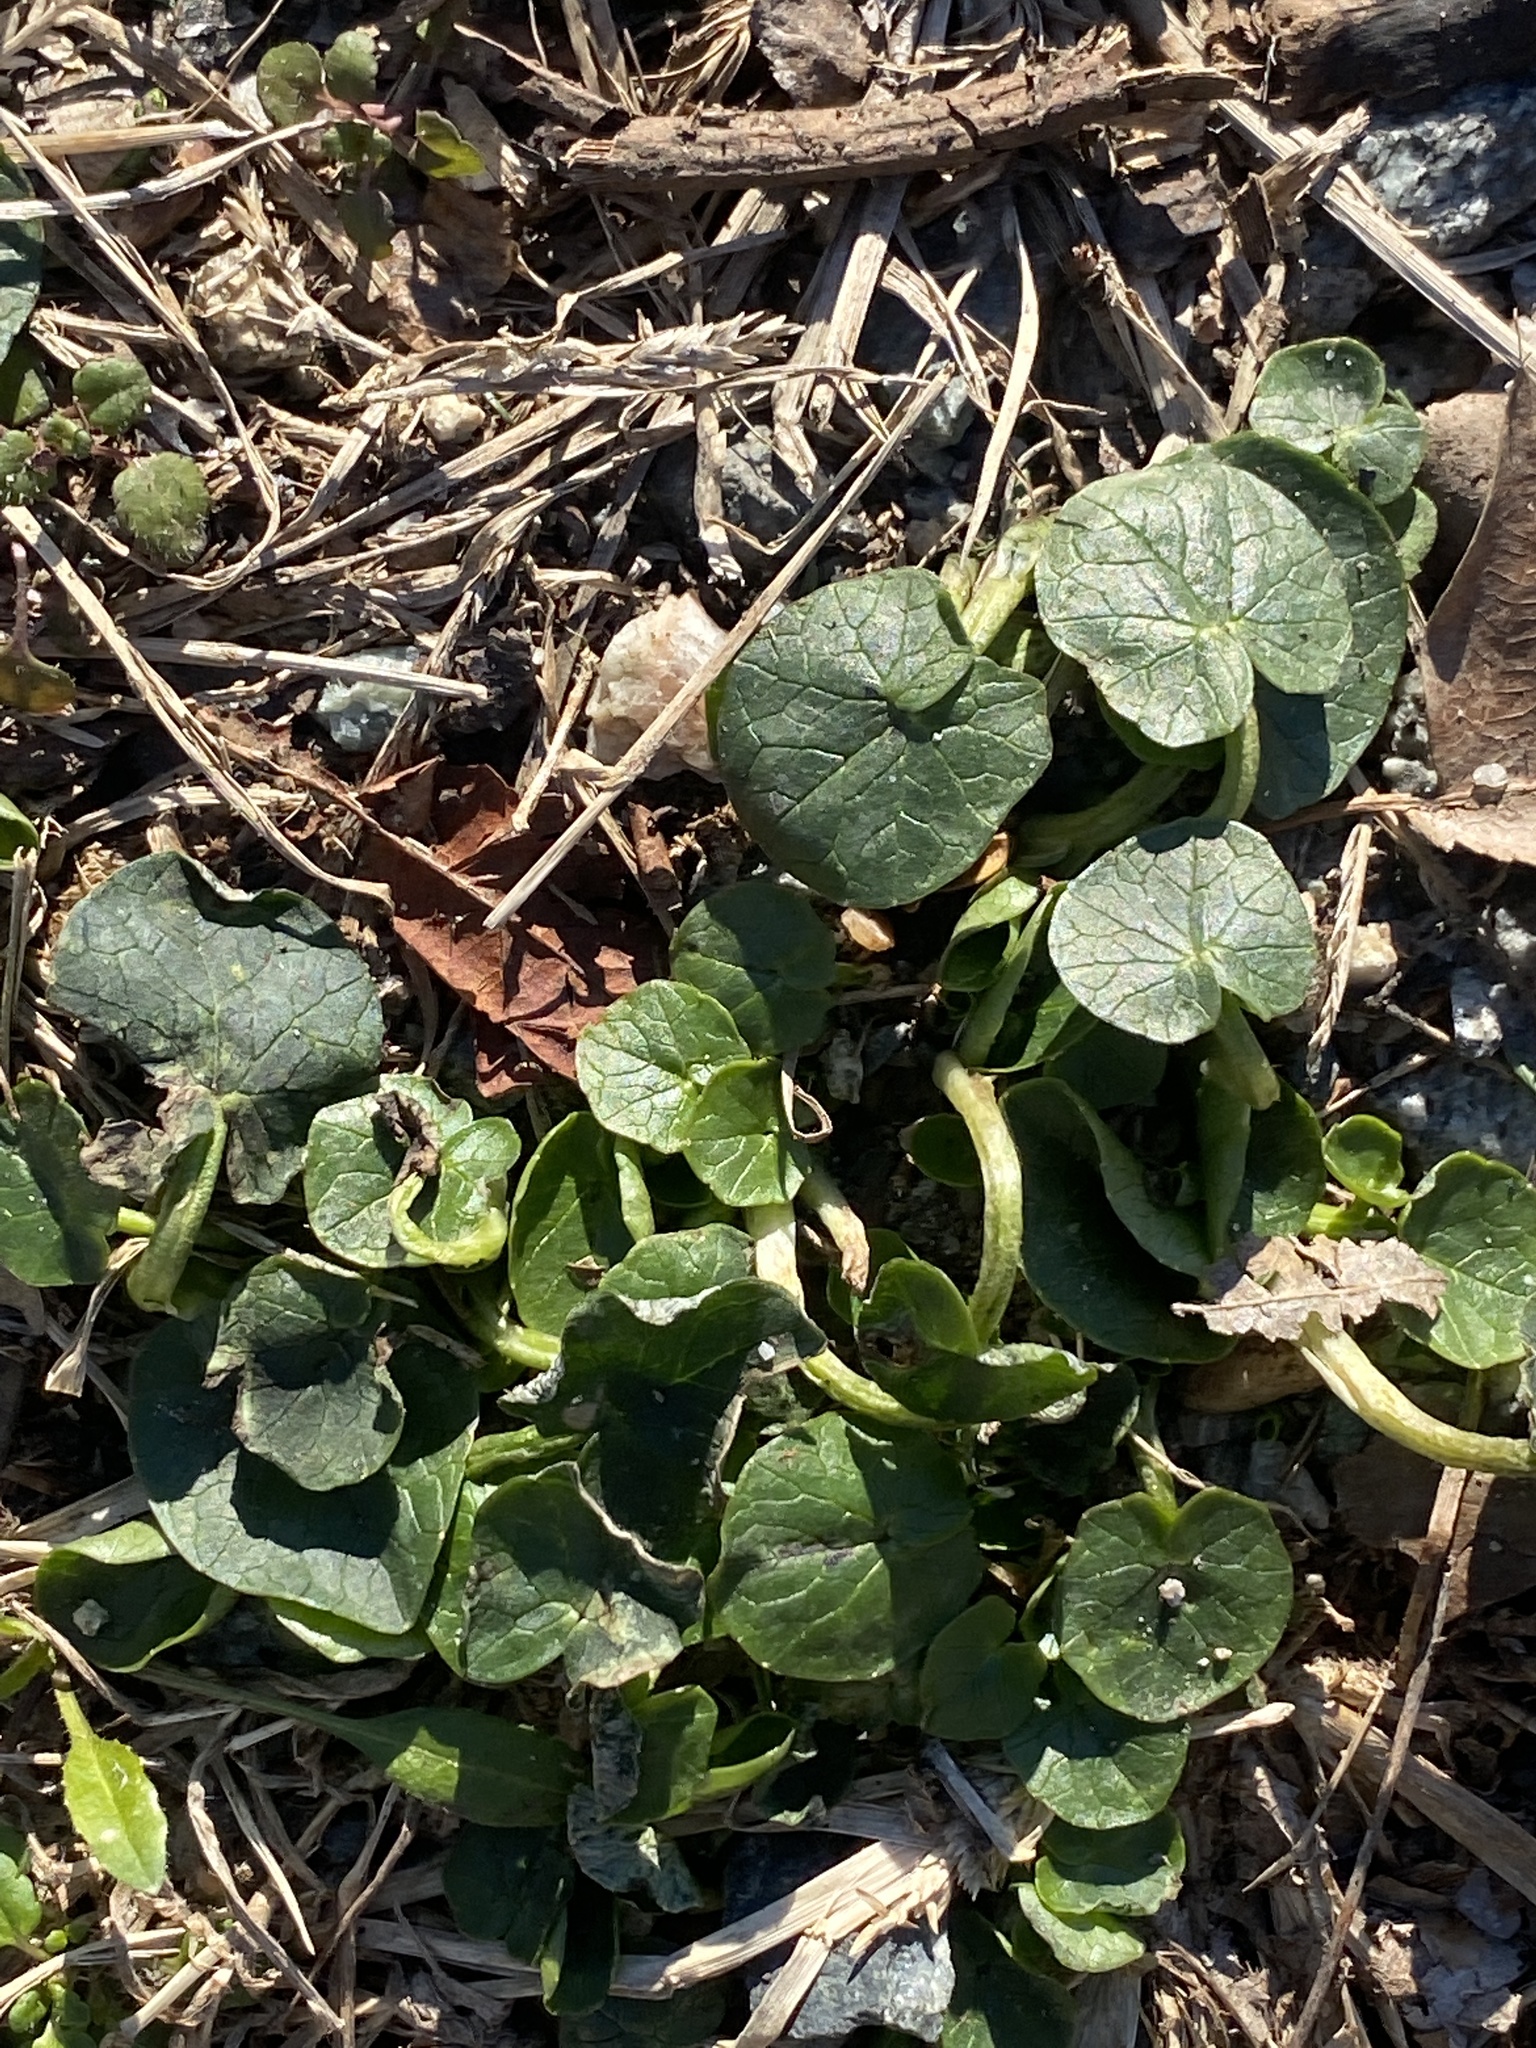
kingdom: Plantae
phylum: Tracheophyta
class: Magnoliopsida
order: Ranunculales
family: Ranunculaceae
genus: Ficaria
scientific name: Ficaria verna
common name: Lesser celandine
